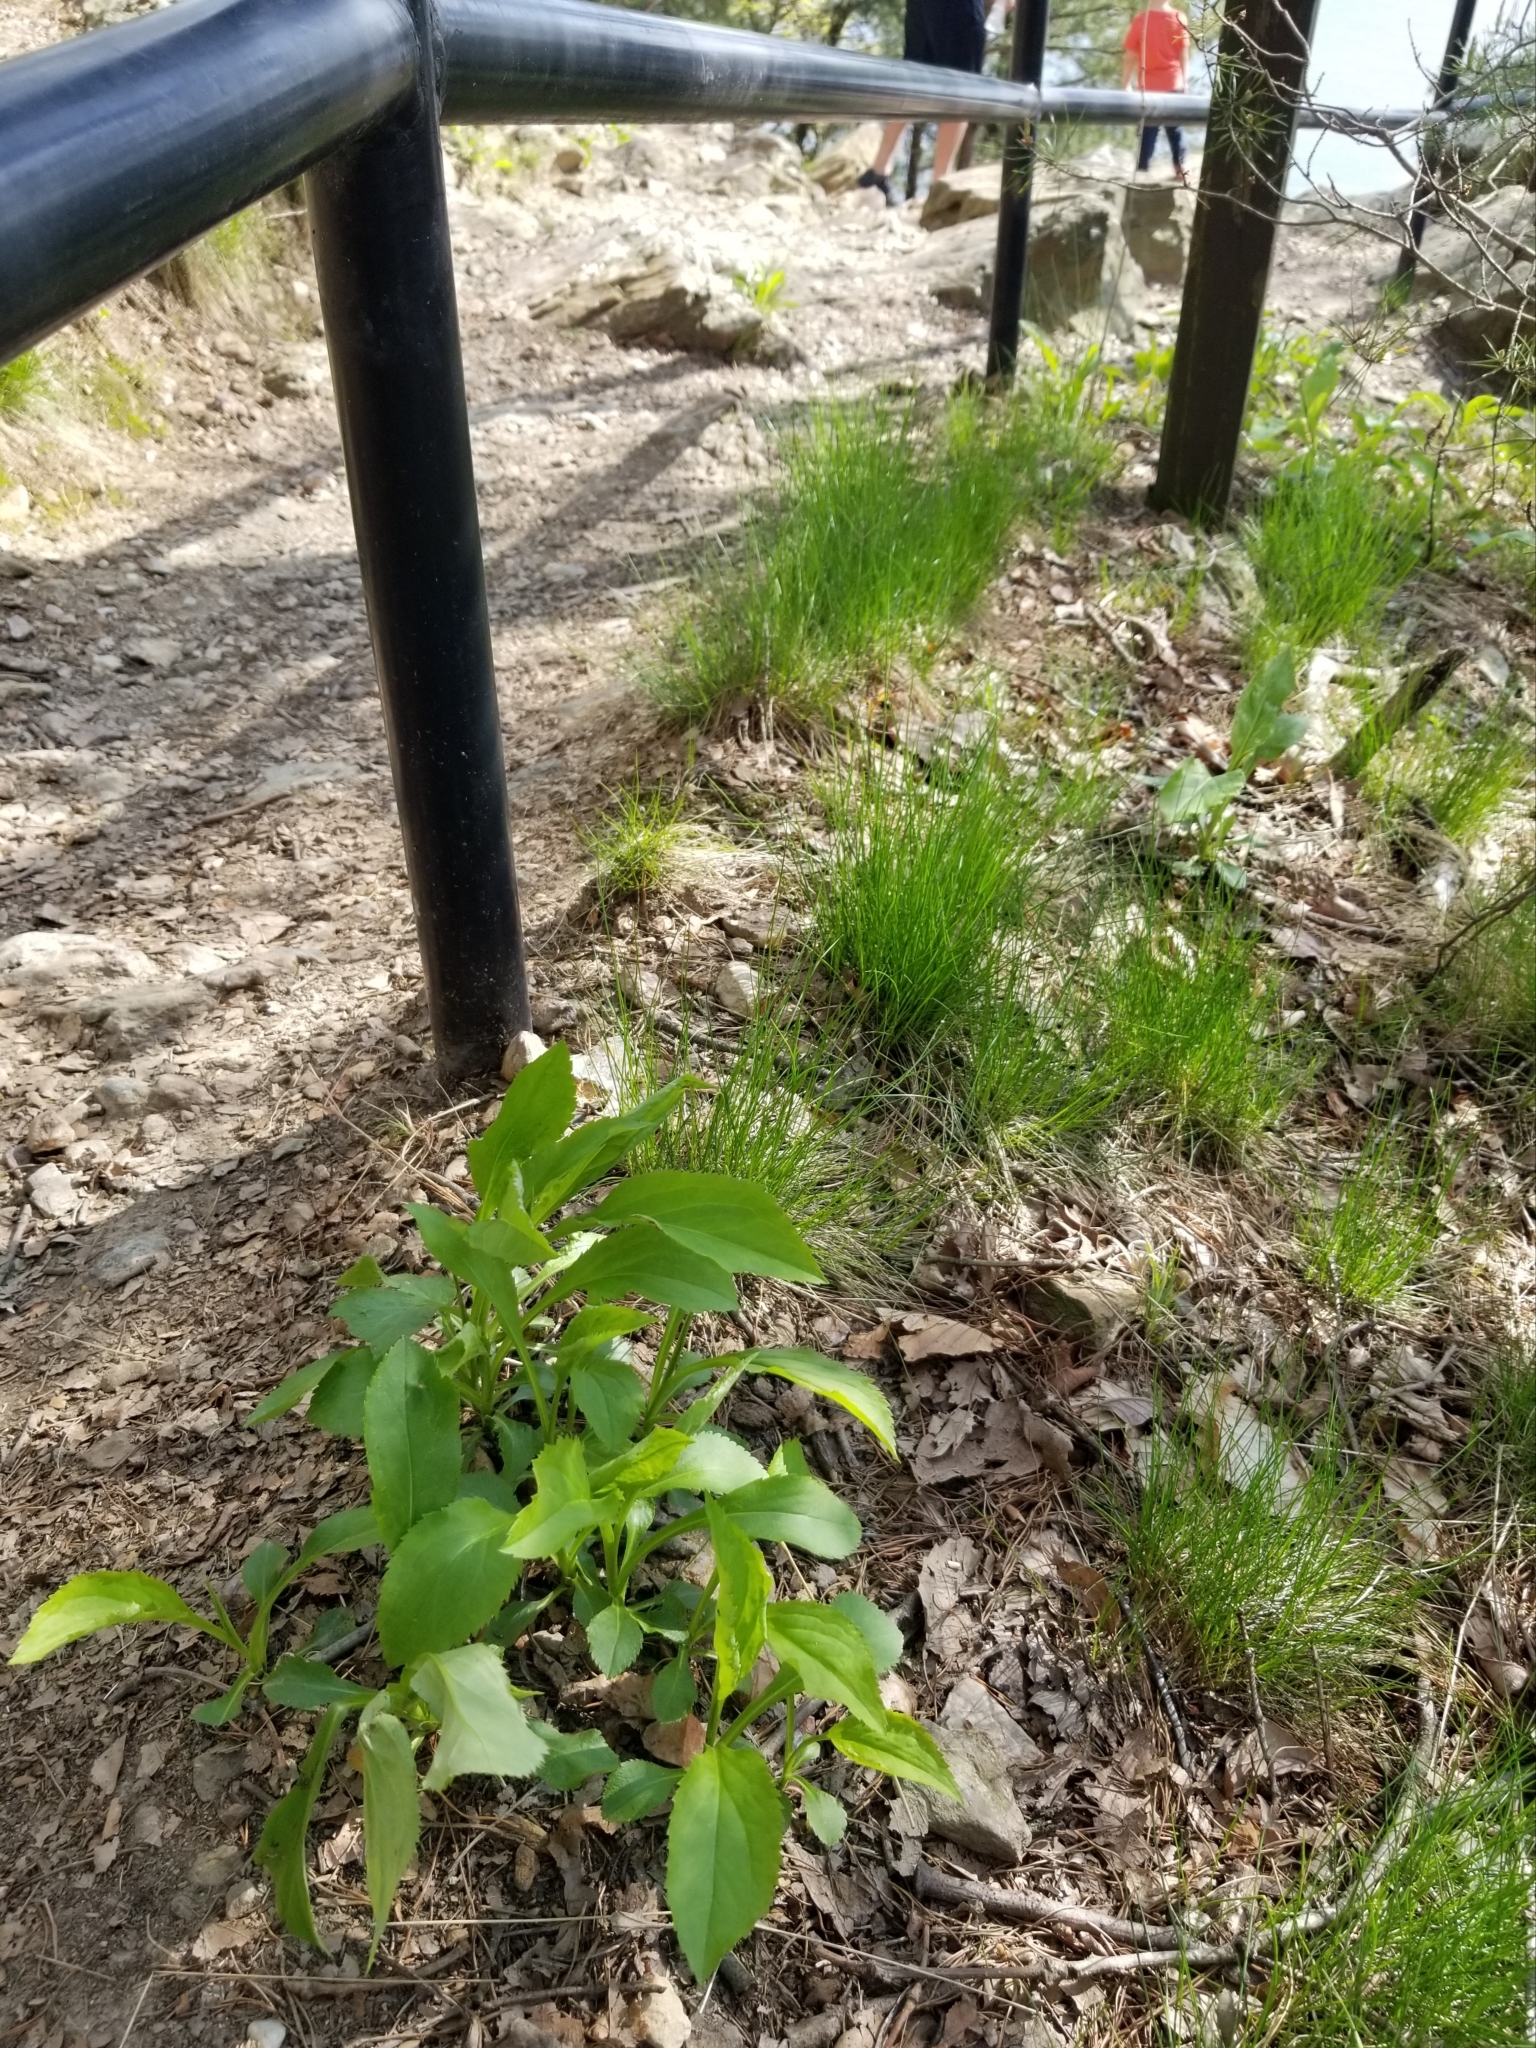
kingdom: Plantae
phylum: Tracheophyta
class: Magnoliopsida
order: Asterales
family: Asteraceae
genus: Solidago
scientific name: Solidago arguta
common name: Atlantic goldenrod
